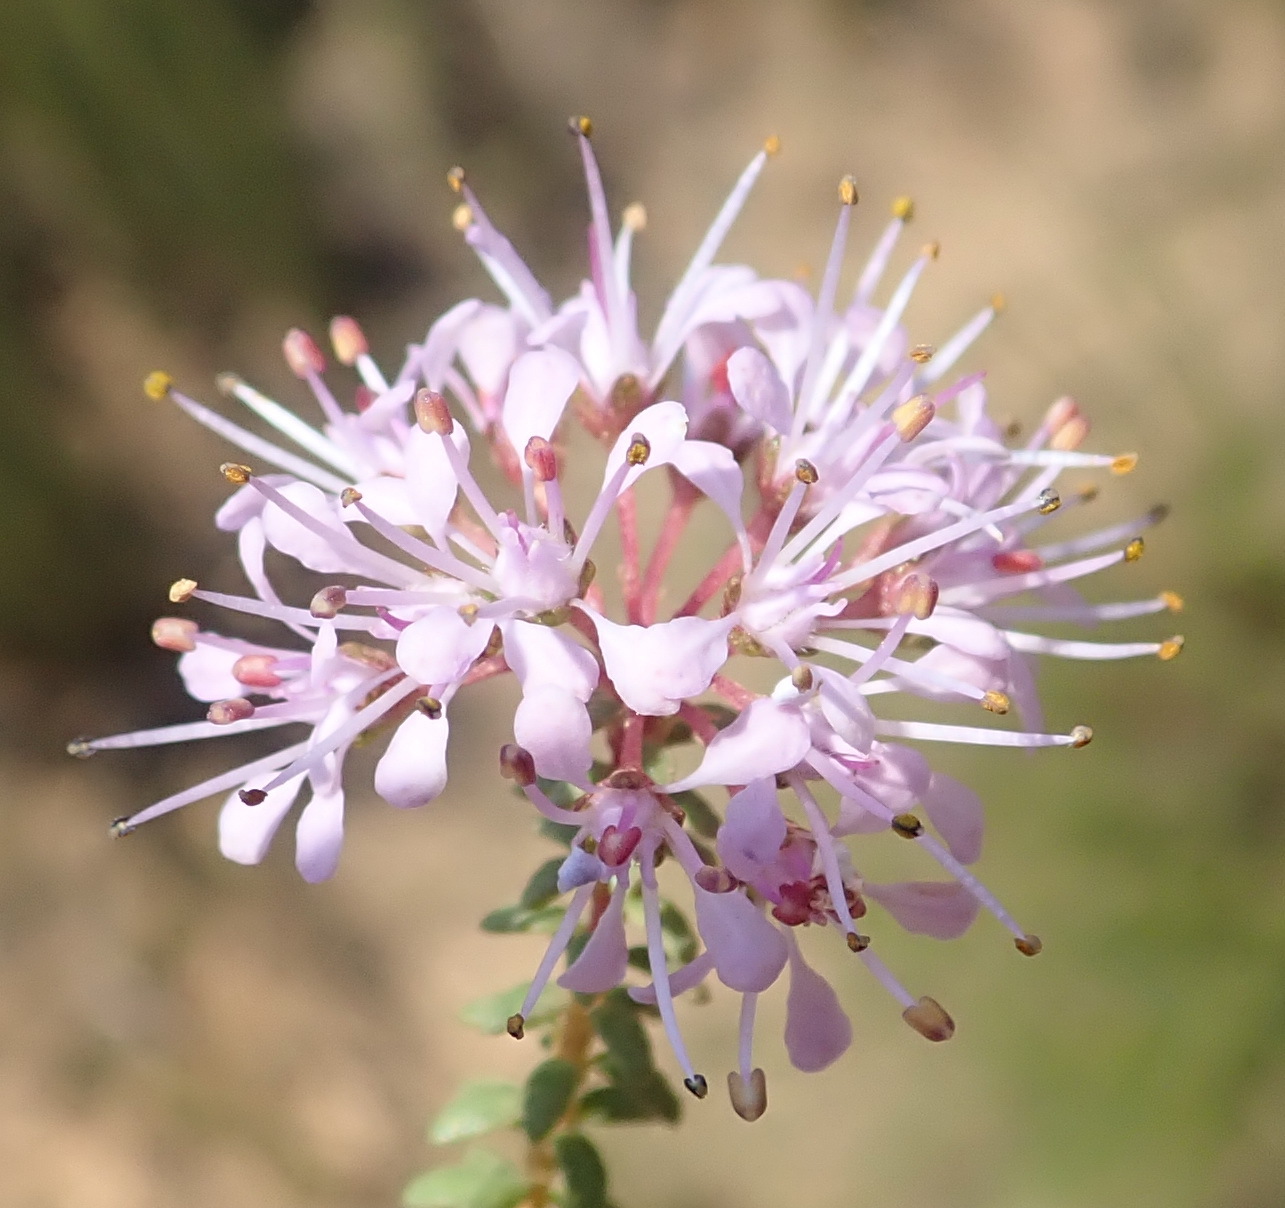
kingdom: Plantae
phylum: Tracheophyta
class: Magnoliopsida
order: Sapindales
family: Rutaceae
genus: Agathosma
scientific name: Agathosma capensis
